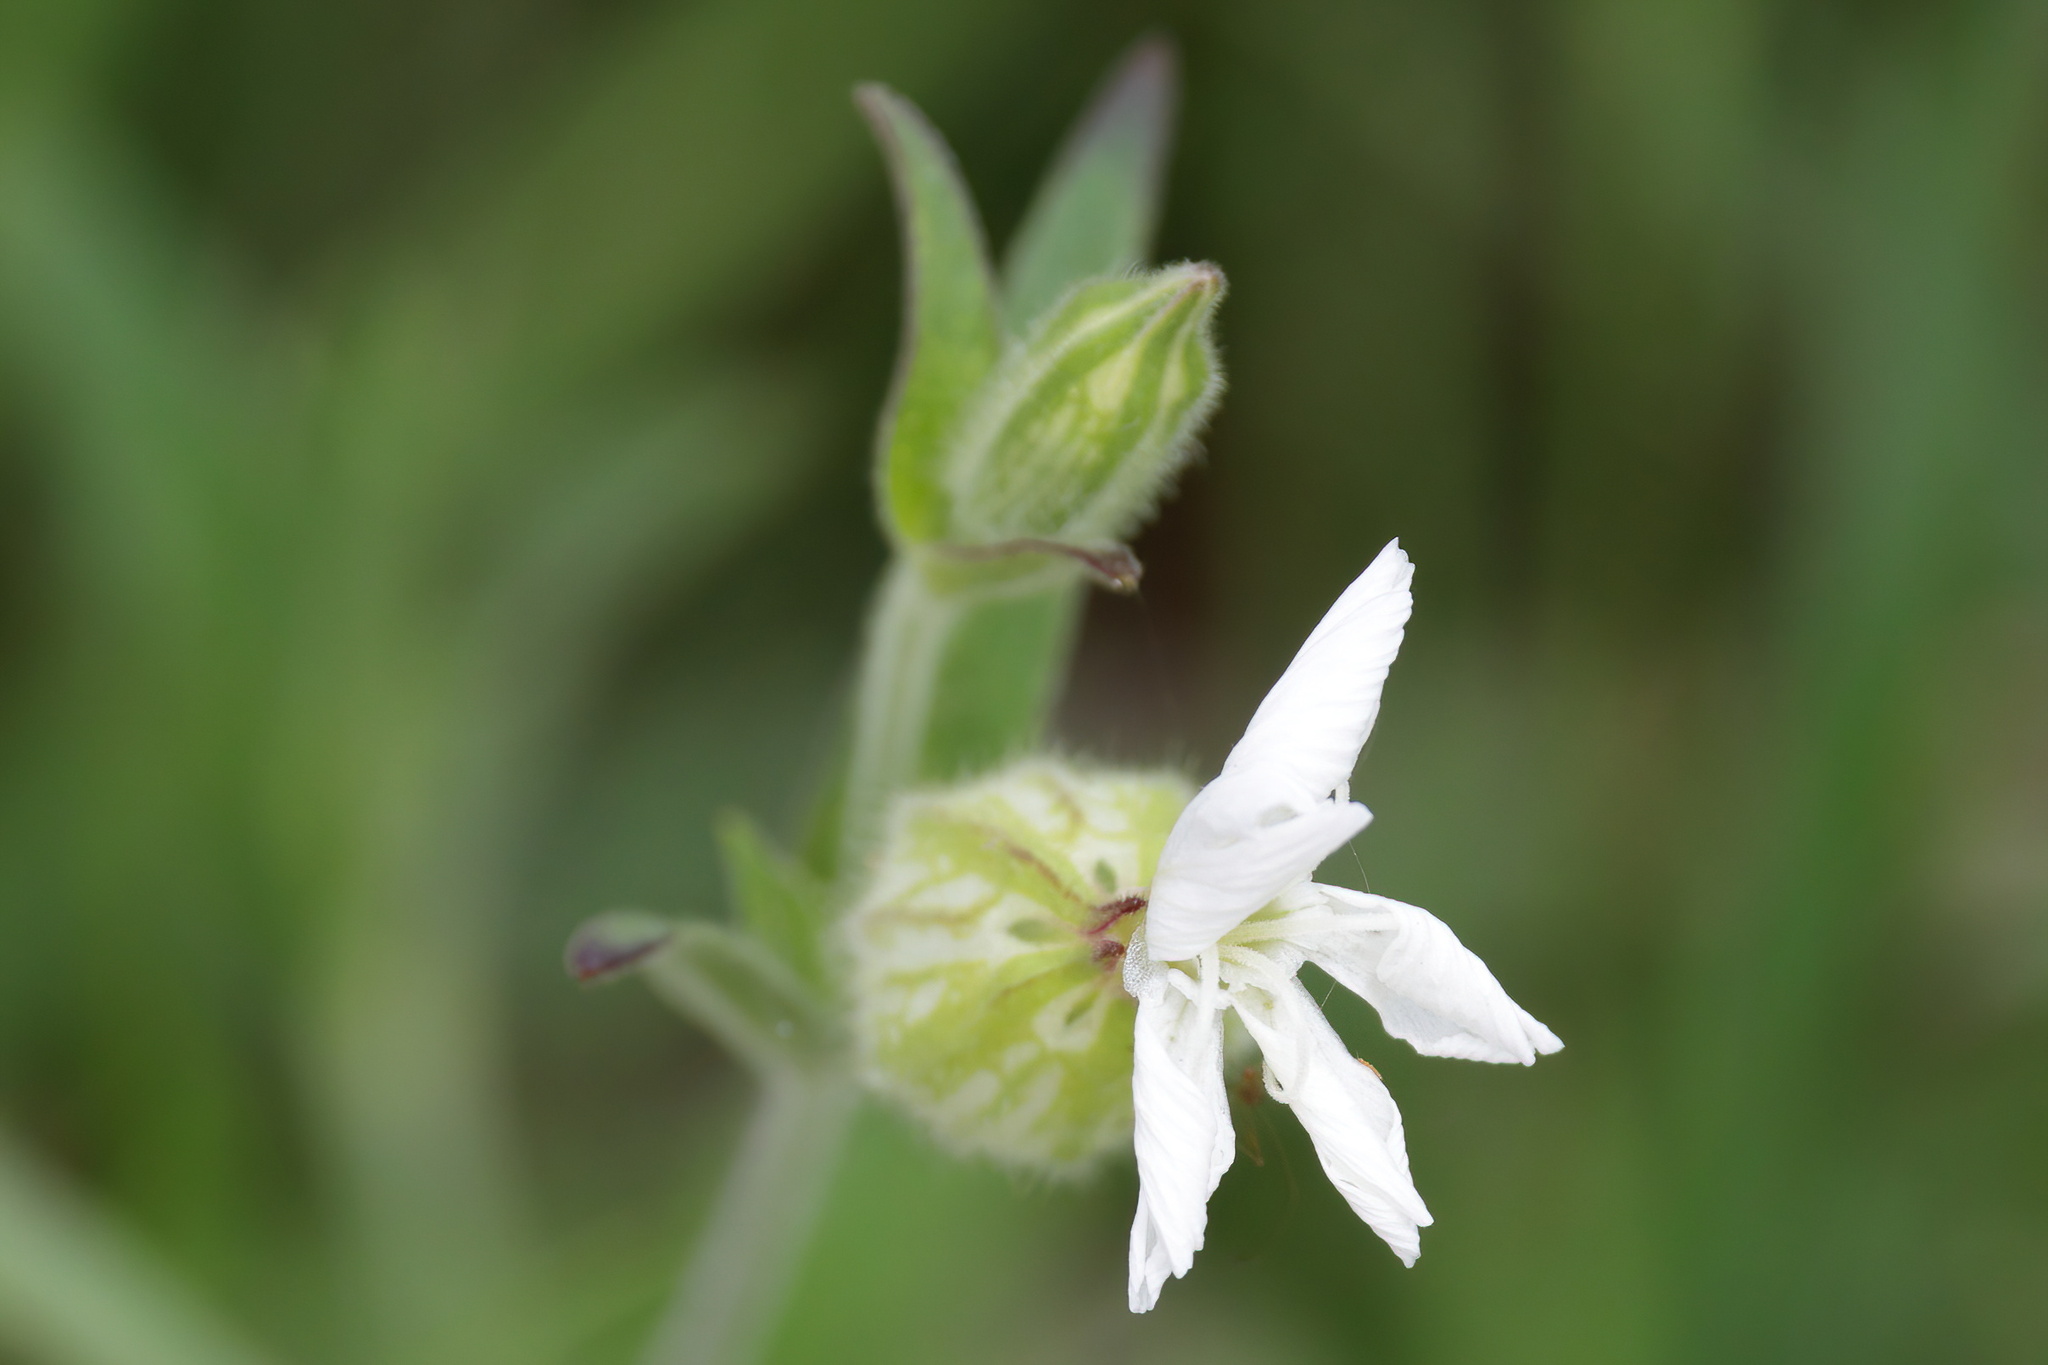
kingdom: Plantae
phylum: Tracheophyta
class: Magnoliopsida
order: Caryophyllales
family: Caryophyllaceae
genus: Silene
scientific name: Silene latifolia
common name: White campion
